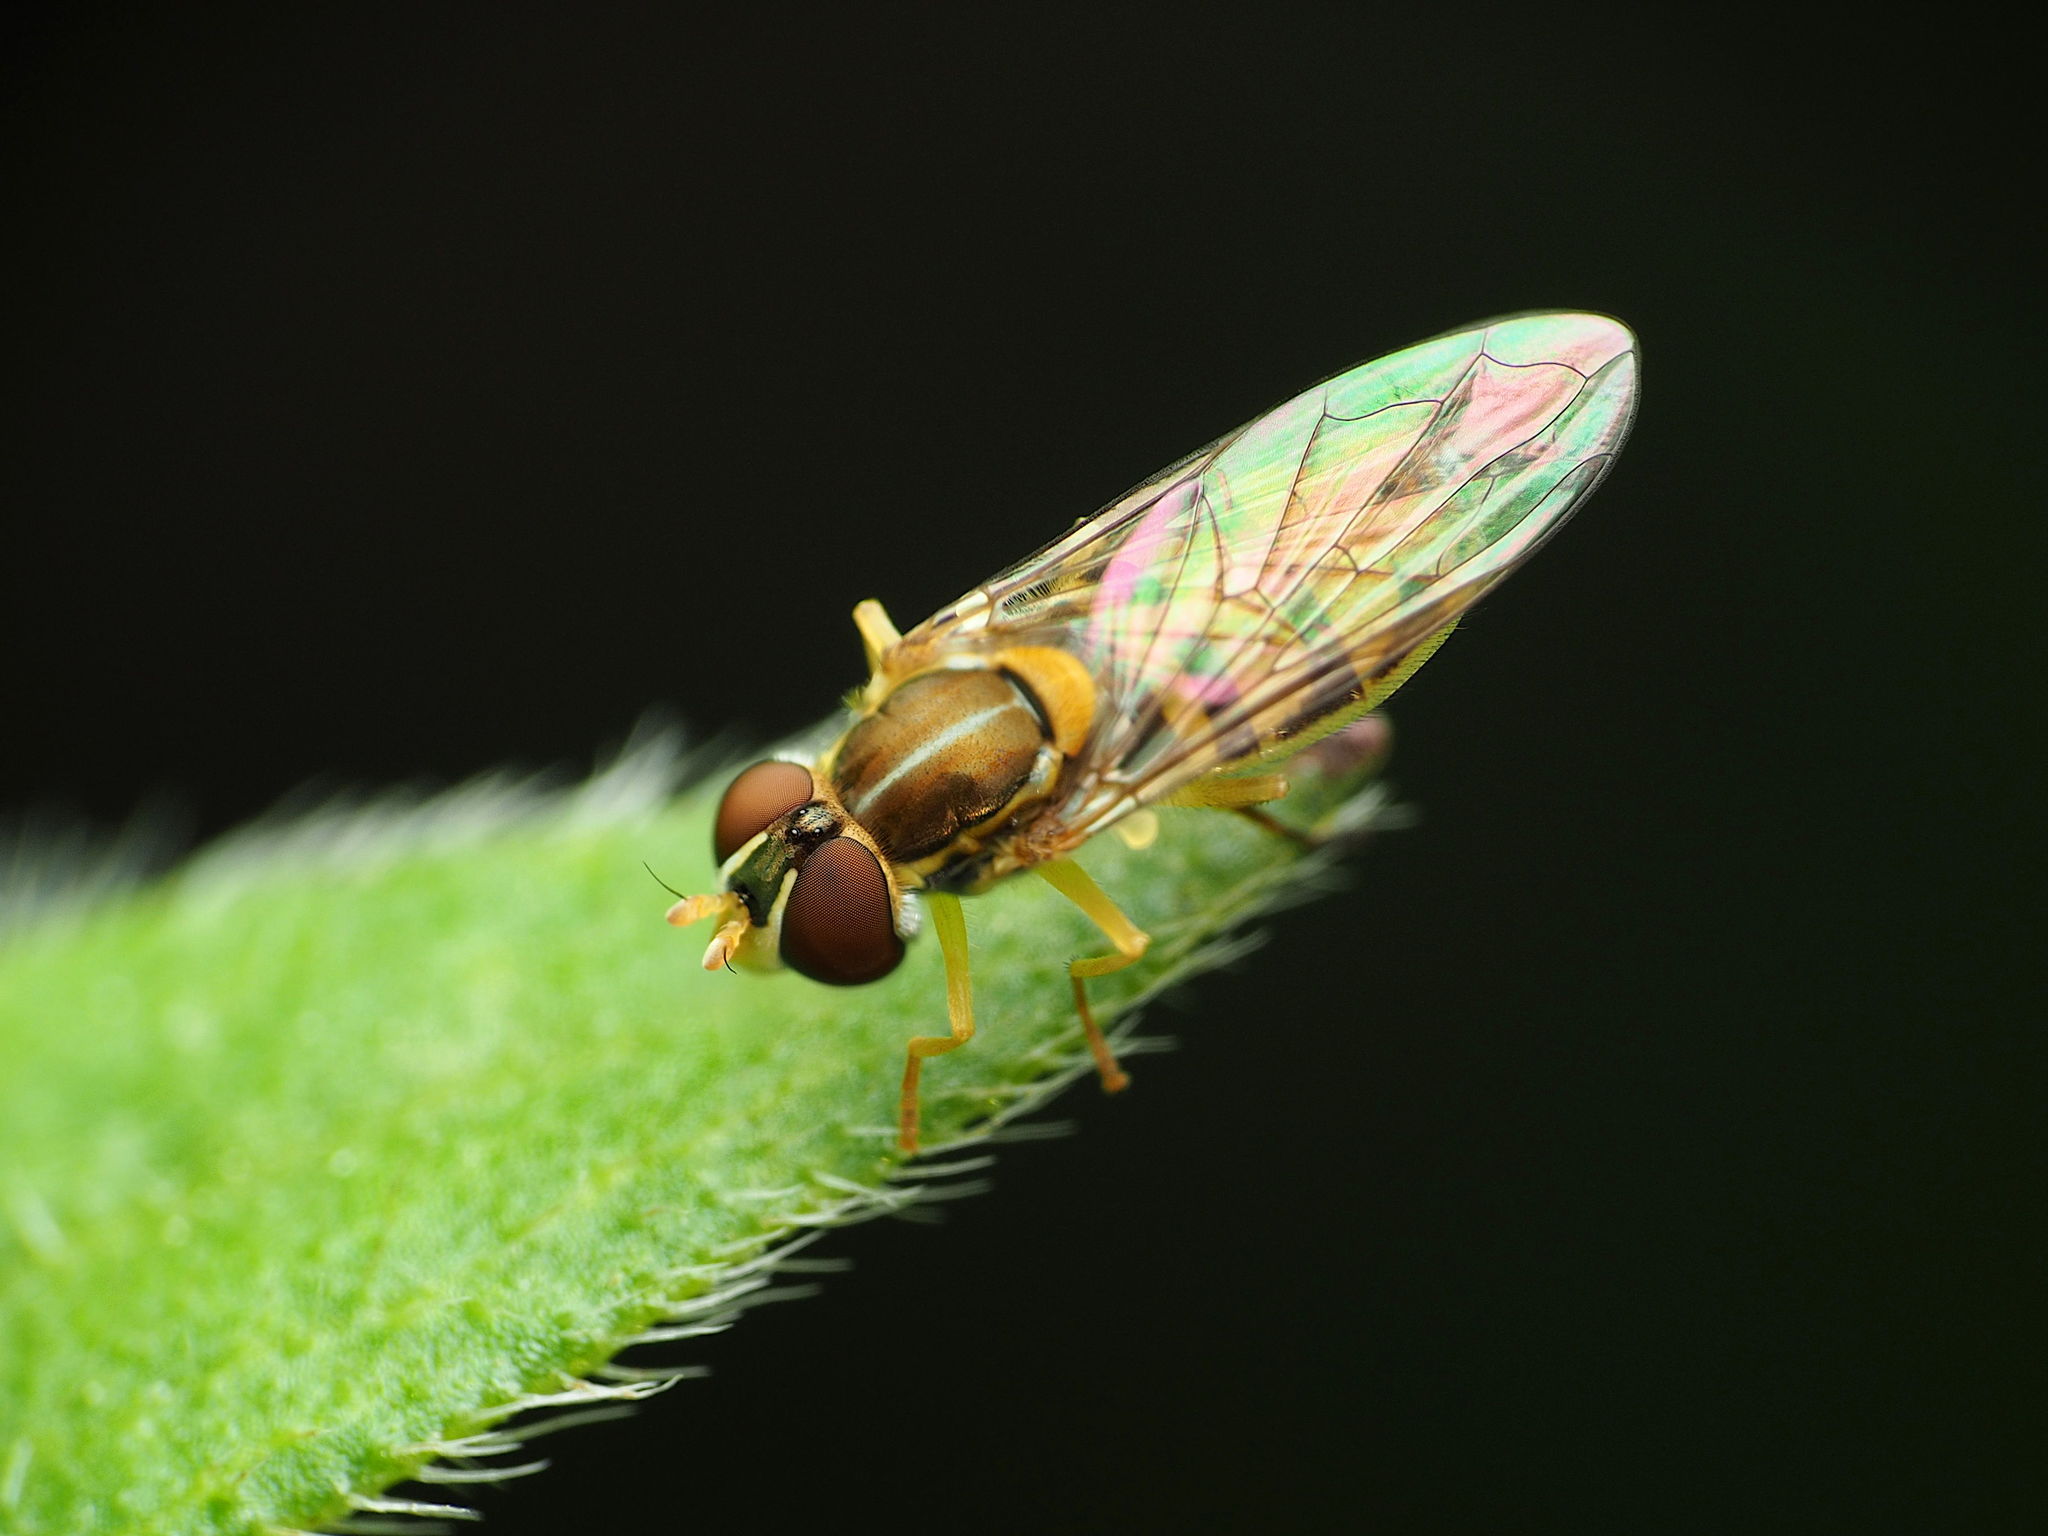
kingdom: Animalia
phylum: Arthropoda
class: Insecta
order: Diptera
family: Syrphidae
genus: Toxomerus
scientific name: Toxomerus marginatus
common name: Syrphid fly
